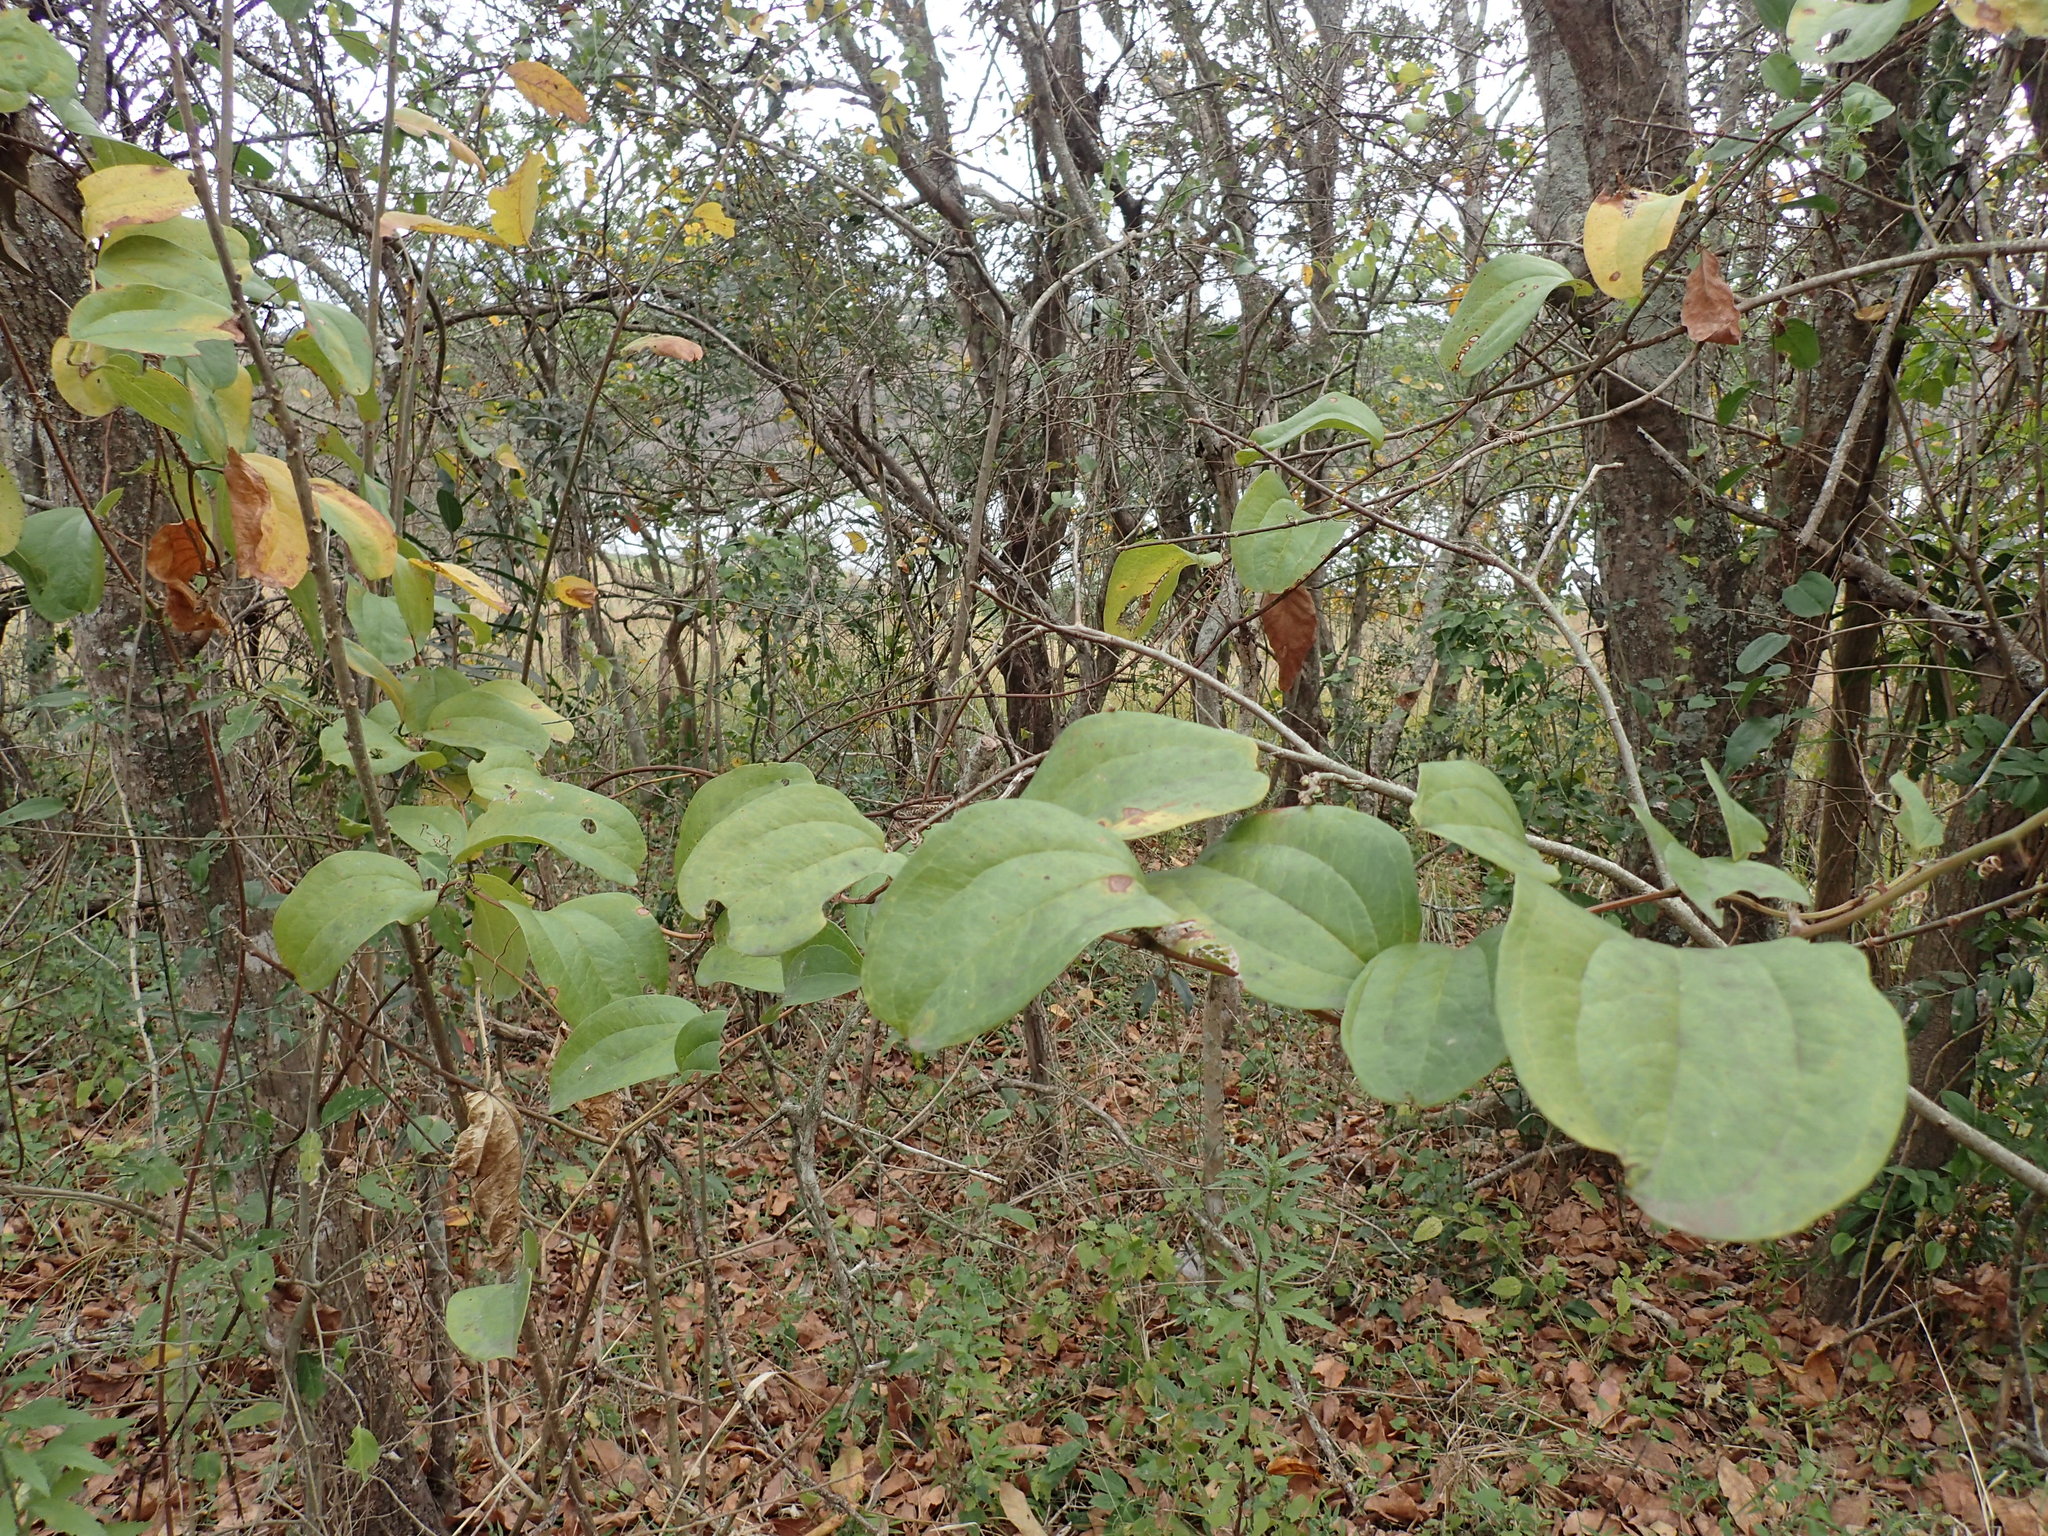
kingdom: Plantae
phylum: Tracheophyta
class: Liliopsida
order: Liliales
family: Smilacaceae
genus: Smilax
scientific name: Smilax anceps
